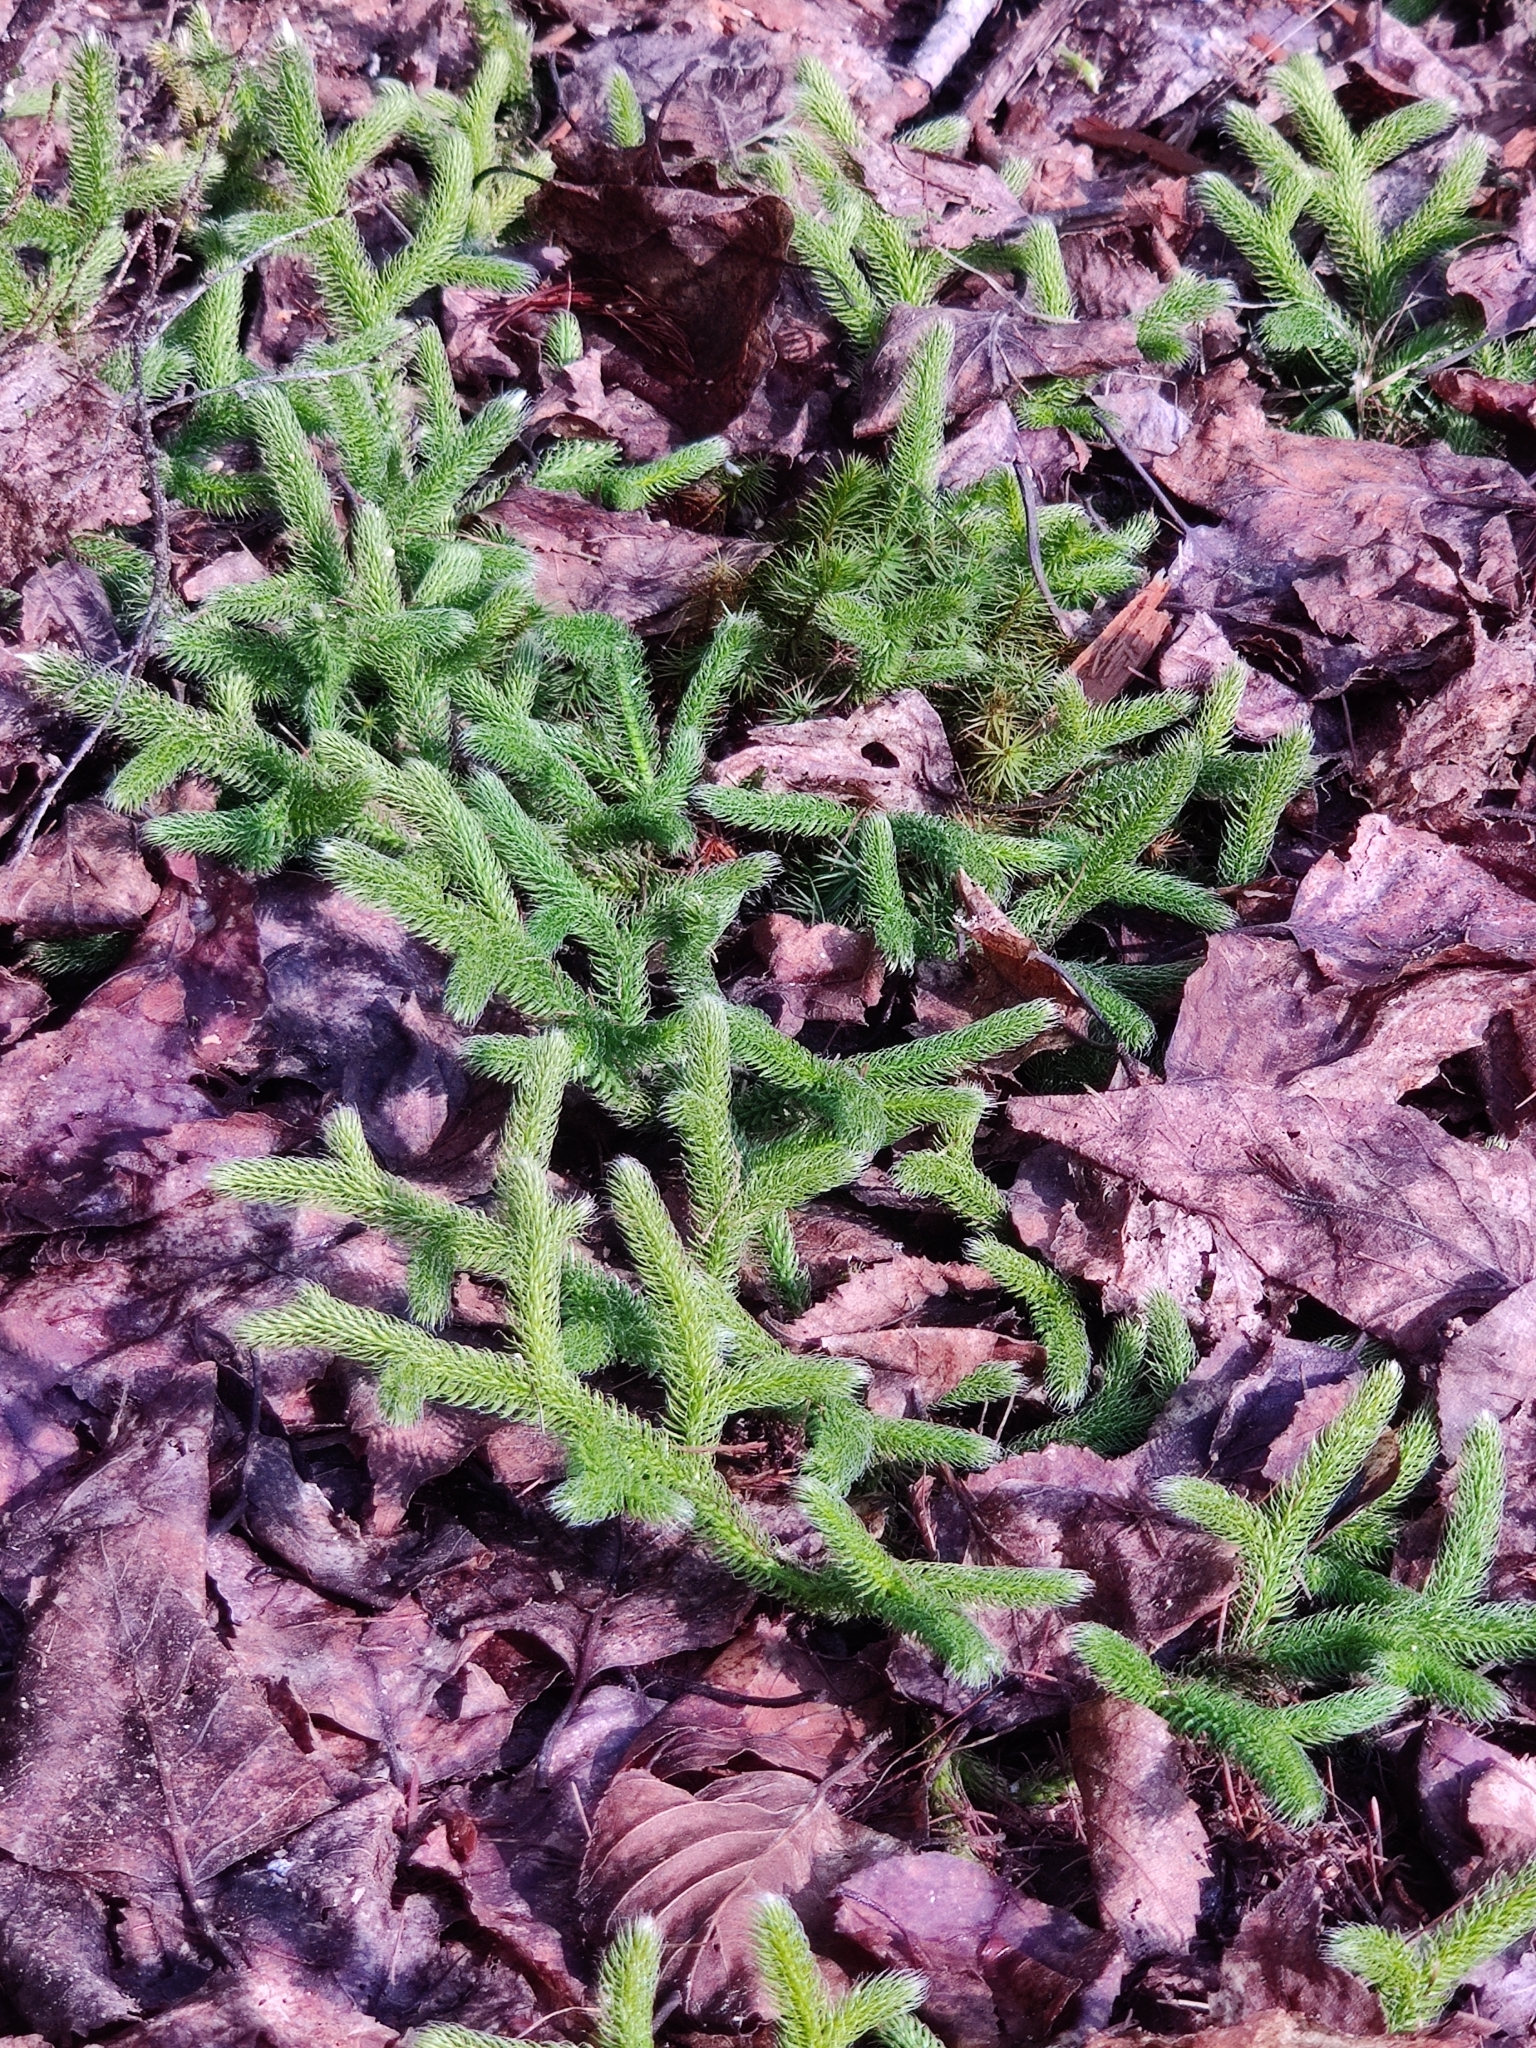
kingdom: Plantae
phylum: Tracheophyta
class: Lycopodiopsida
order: Lycopodiales
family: Lycopodiaceae
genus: Lycopodium
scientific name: Lycopodium clavatum
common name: Stag's-horn clubmoss
